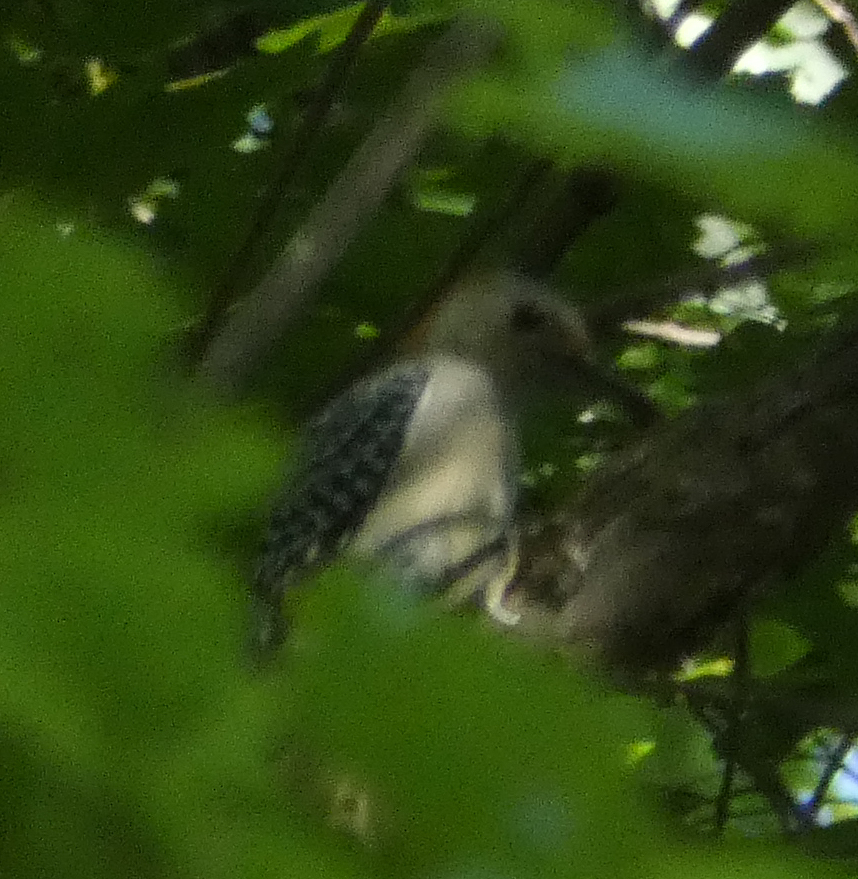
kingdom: Animalia
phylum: Chordata
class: Aves
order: Piciformes
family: Picidae
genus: Melanerpes
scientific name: Melanerpes carolinus
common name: Red-bellied woodpecker
